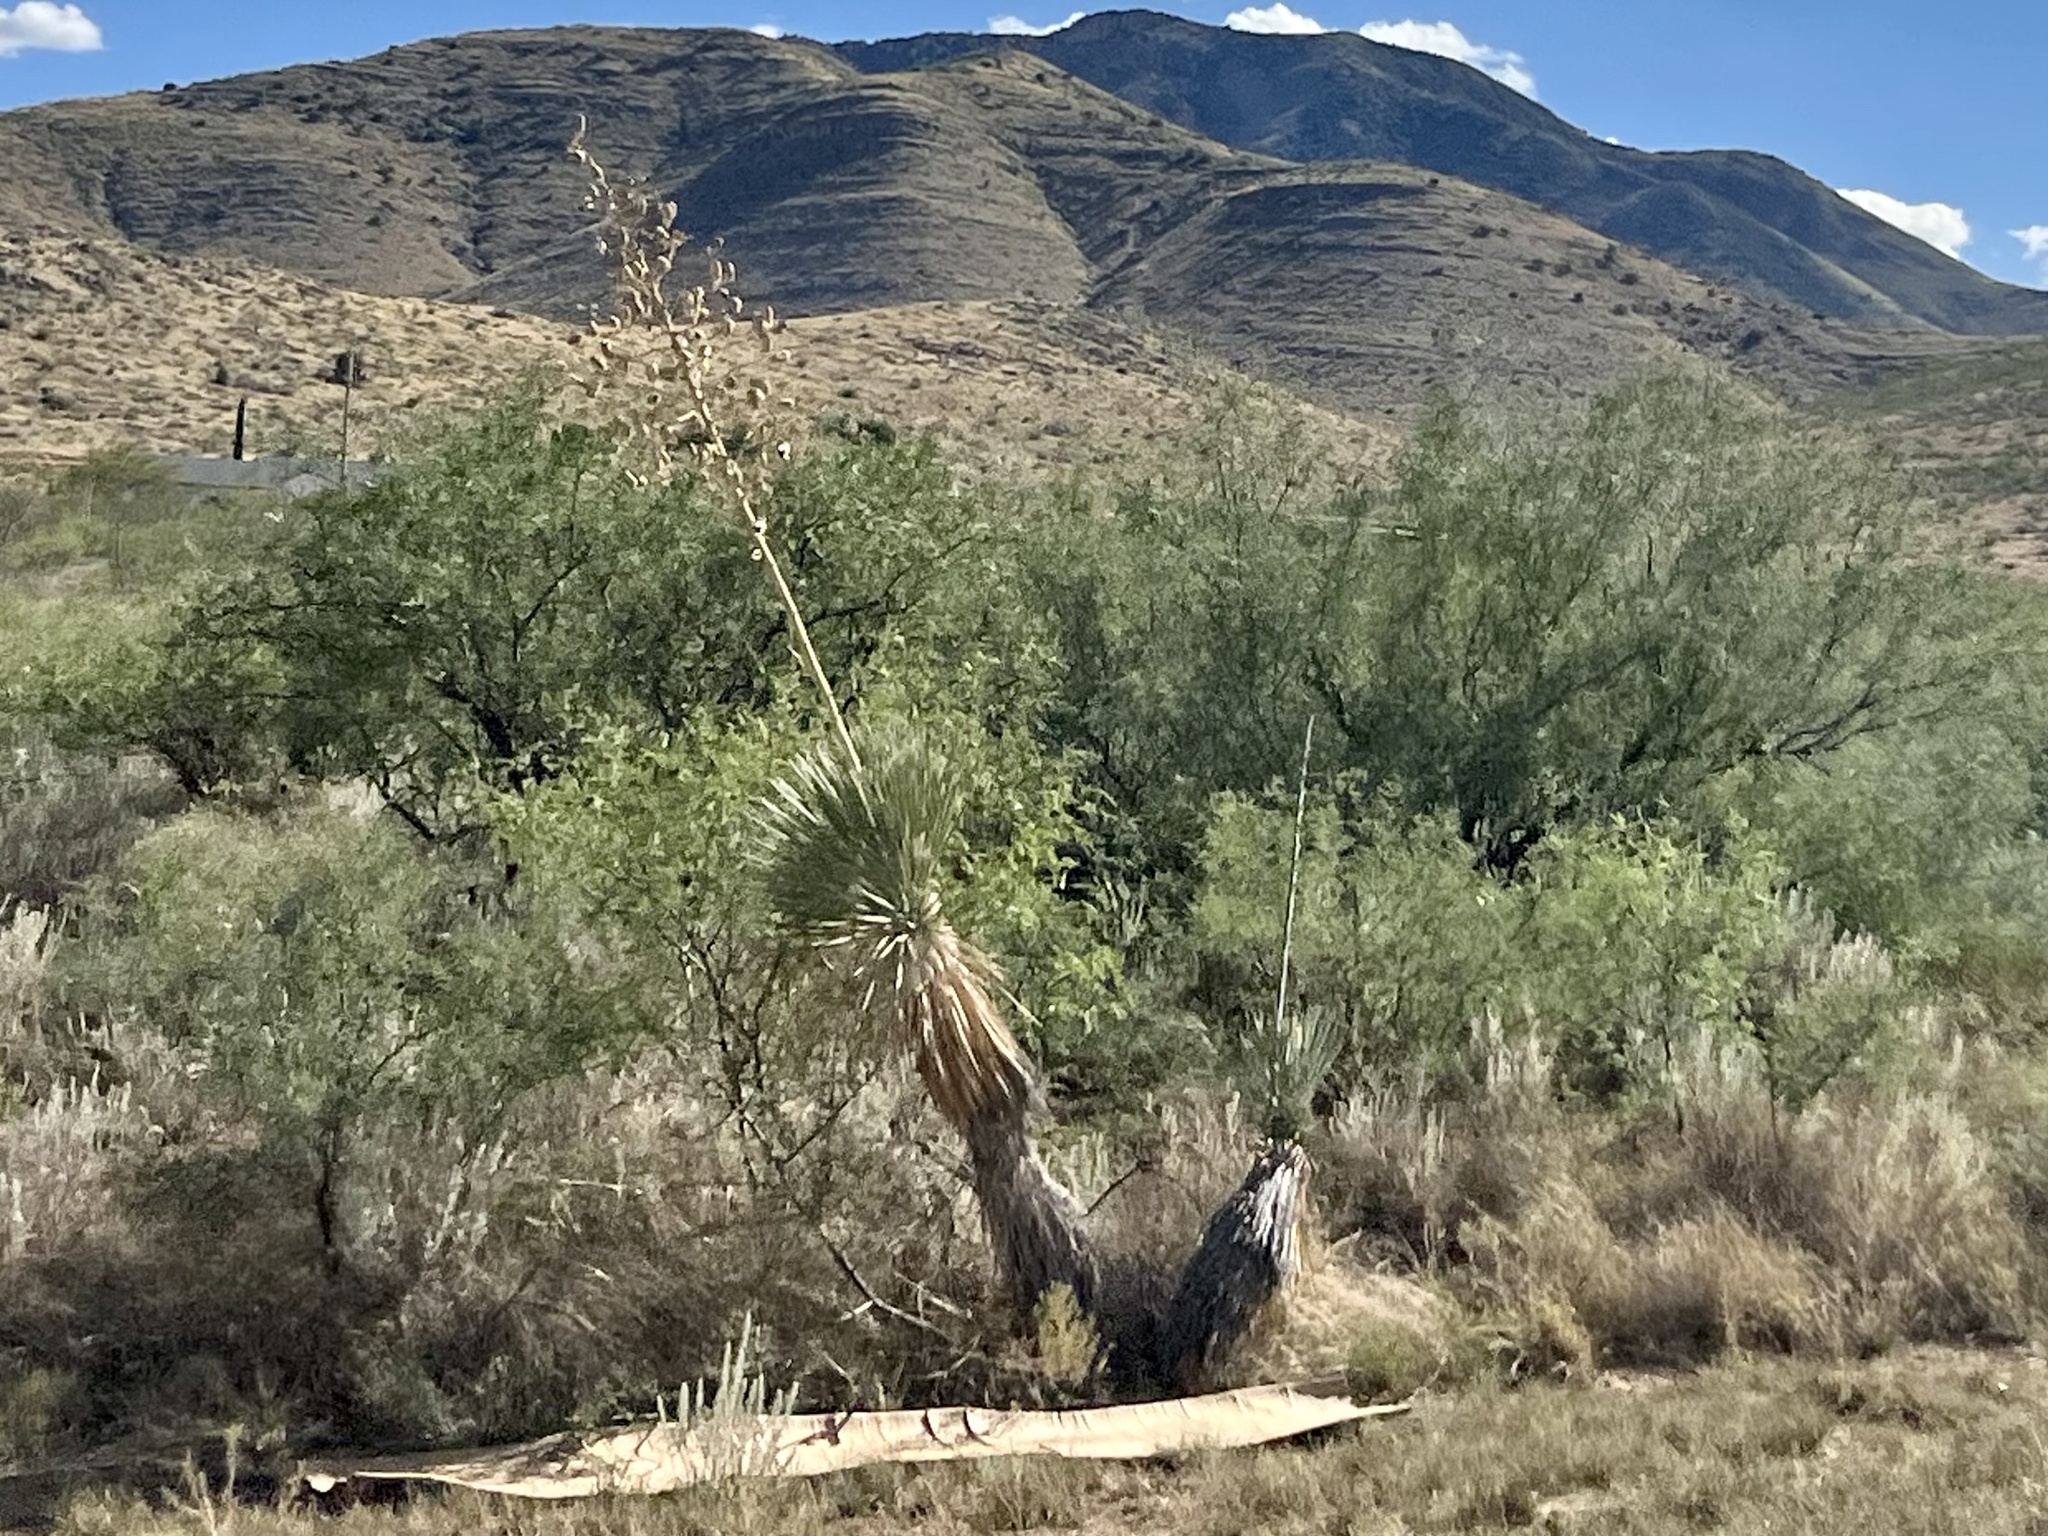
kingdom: Plantae
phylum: Tracheophyta
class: Liliopsida
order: Asparagales
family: Asparagaceae
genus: Yucca
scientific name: Yucca elata
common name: Palmella
